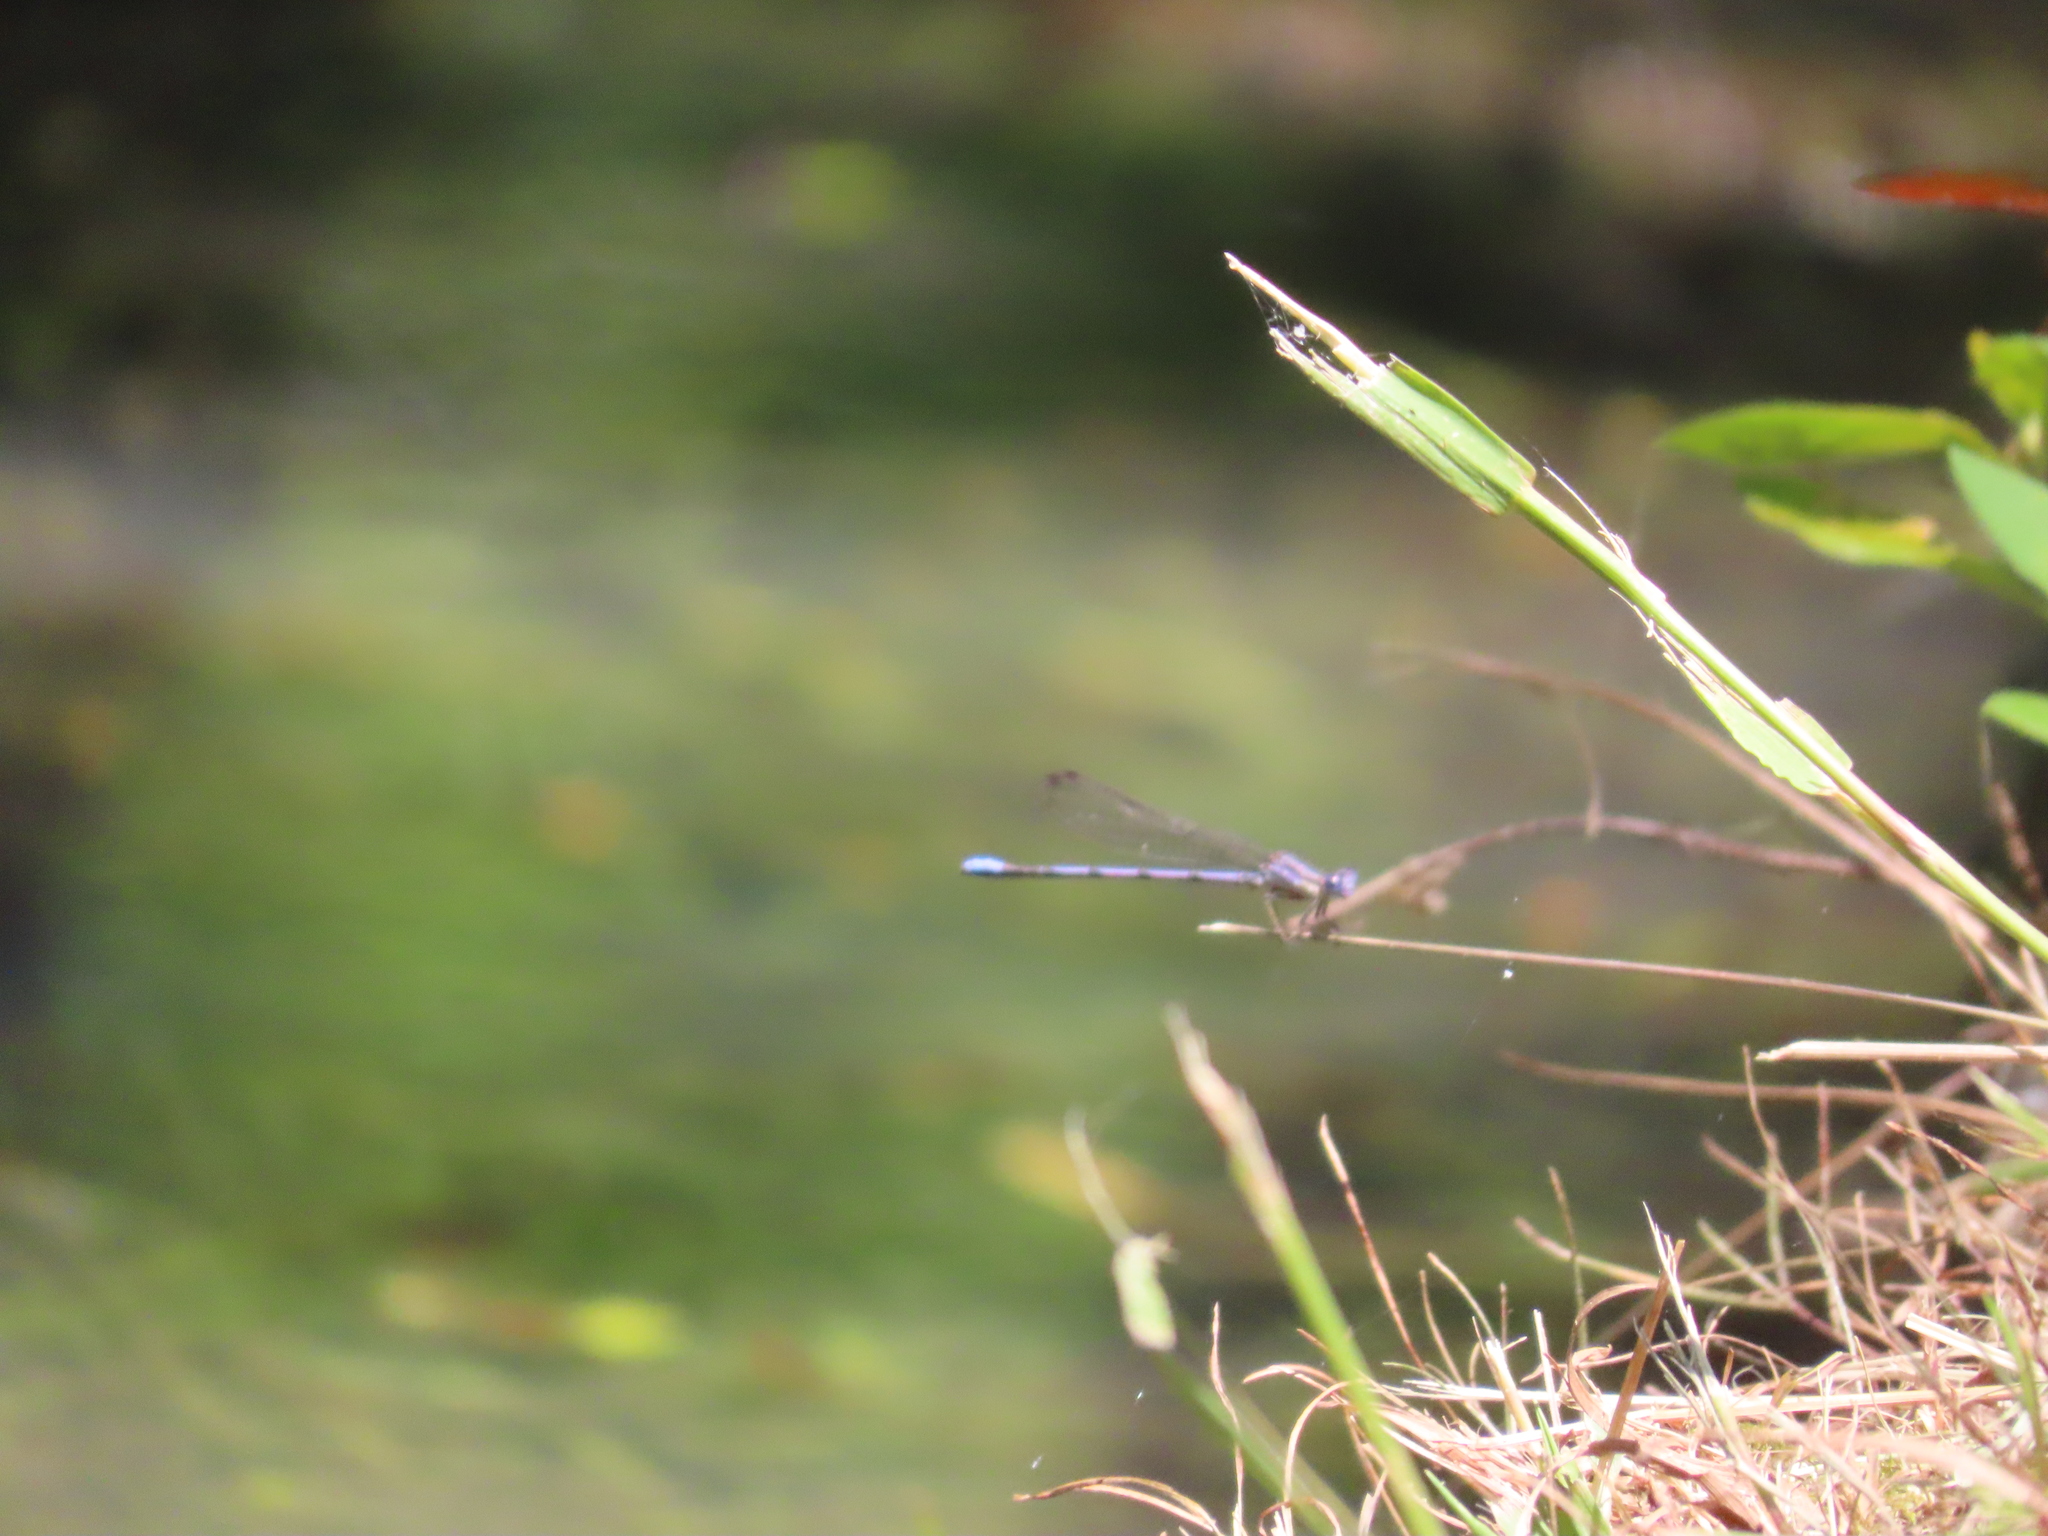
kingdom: Animalia
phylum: Arthropoda
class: Insecta
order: Odonata
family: Coenagrionidae
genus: Argia
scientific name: Argia fumipennis
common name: Variable dancer
